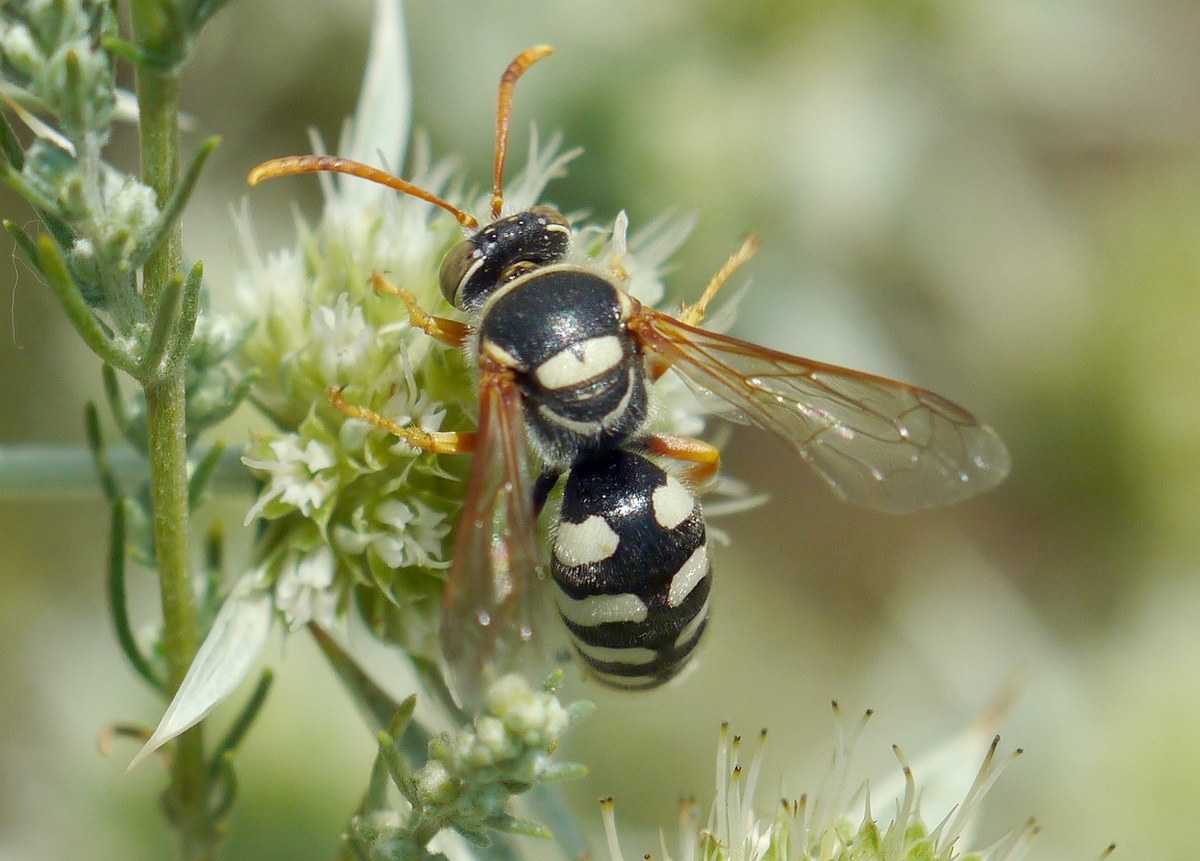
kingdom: Animalia
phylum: Arthropoda
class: Insecta
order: Hymenoptera
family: Crabronidae
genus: Stizus
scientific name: Stizus bipunctatus
